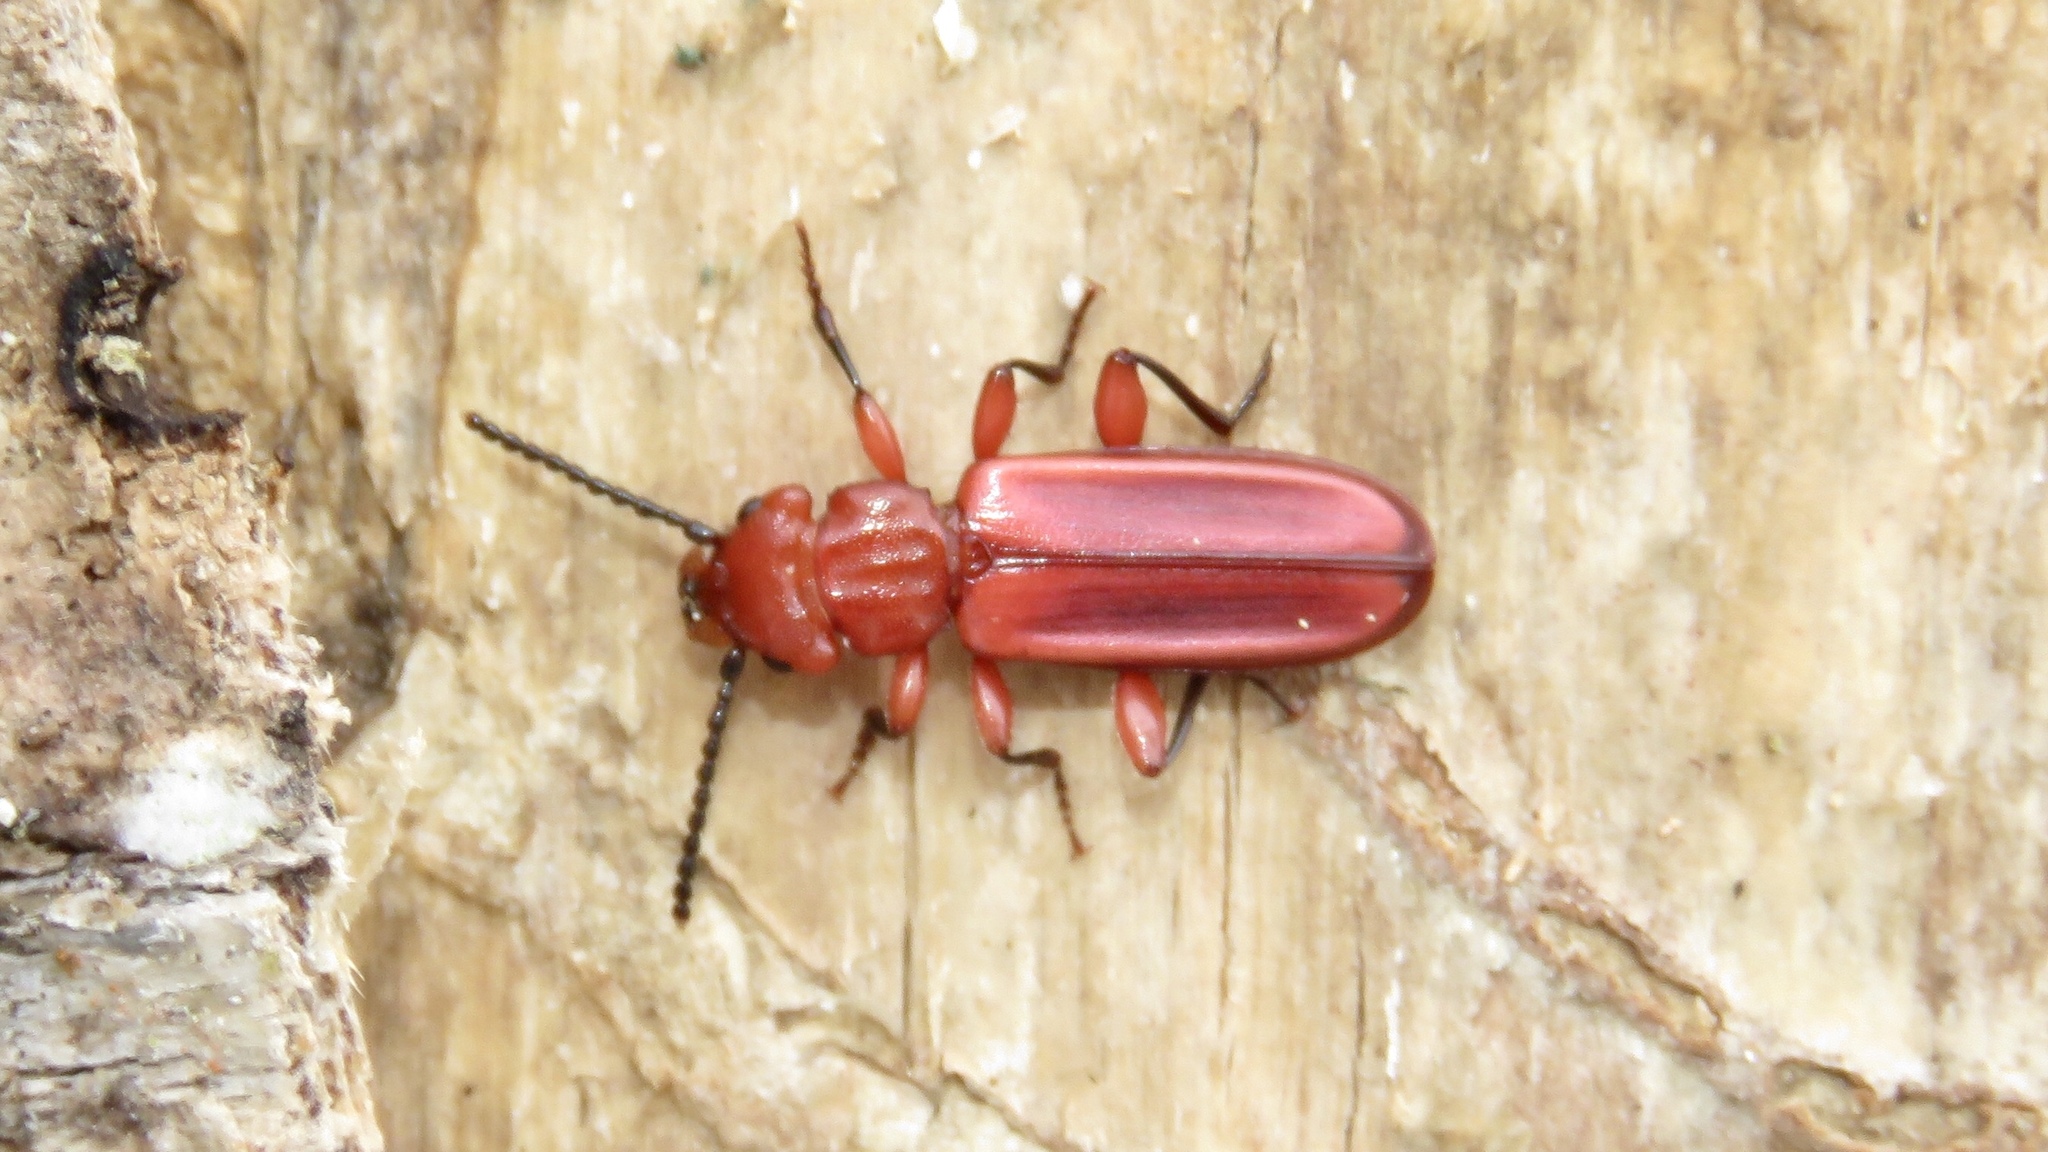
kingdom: Animalia
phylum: Arthropoda
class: Insecta
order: Coleoptera
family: Cucujidae
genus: Cucujus
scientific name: Cucujus clavipes
